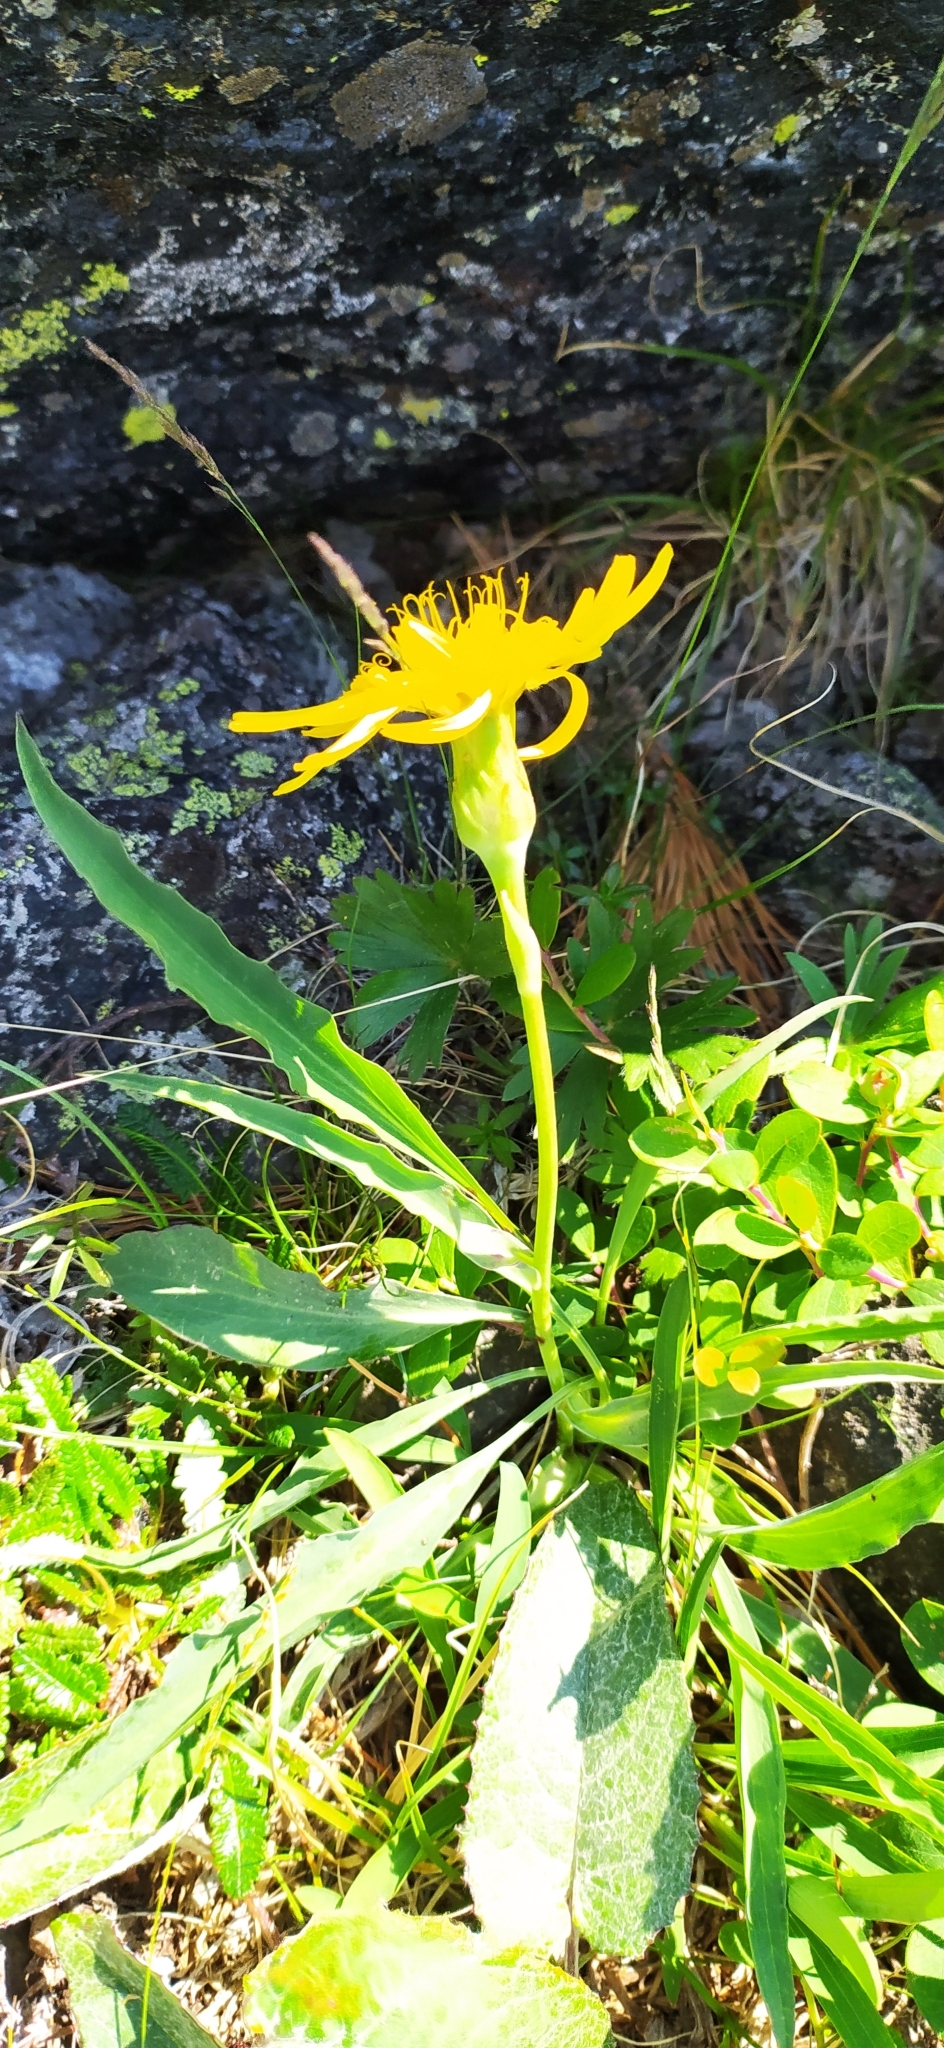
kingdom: Plantae
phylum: Tracheophyta
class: Magnoliopsida
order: Asterales
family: Asteraceae
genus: Scorzonera
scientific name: Scorzonera glabra
